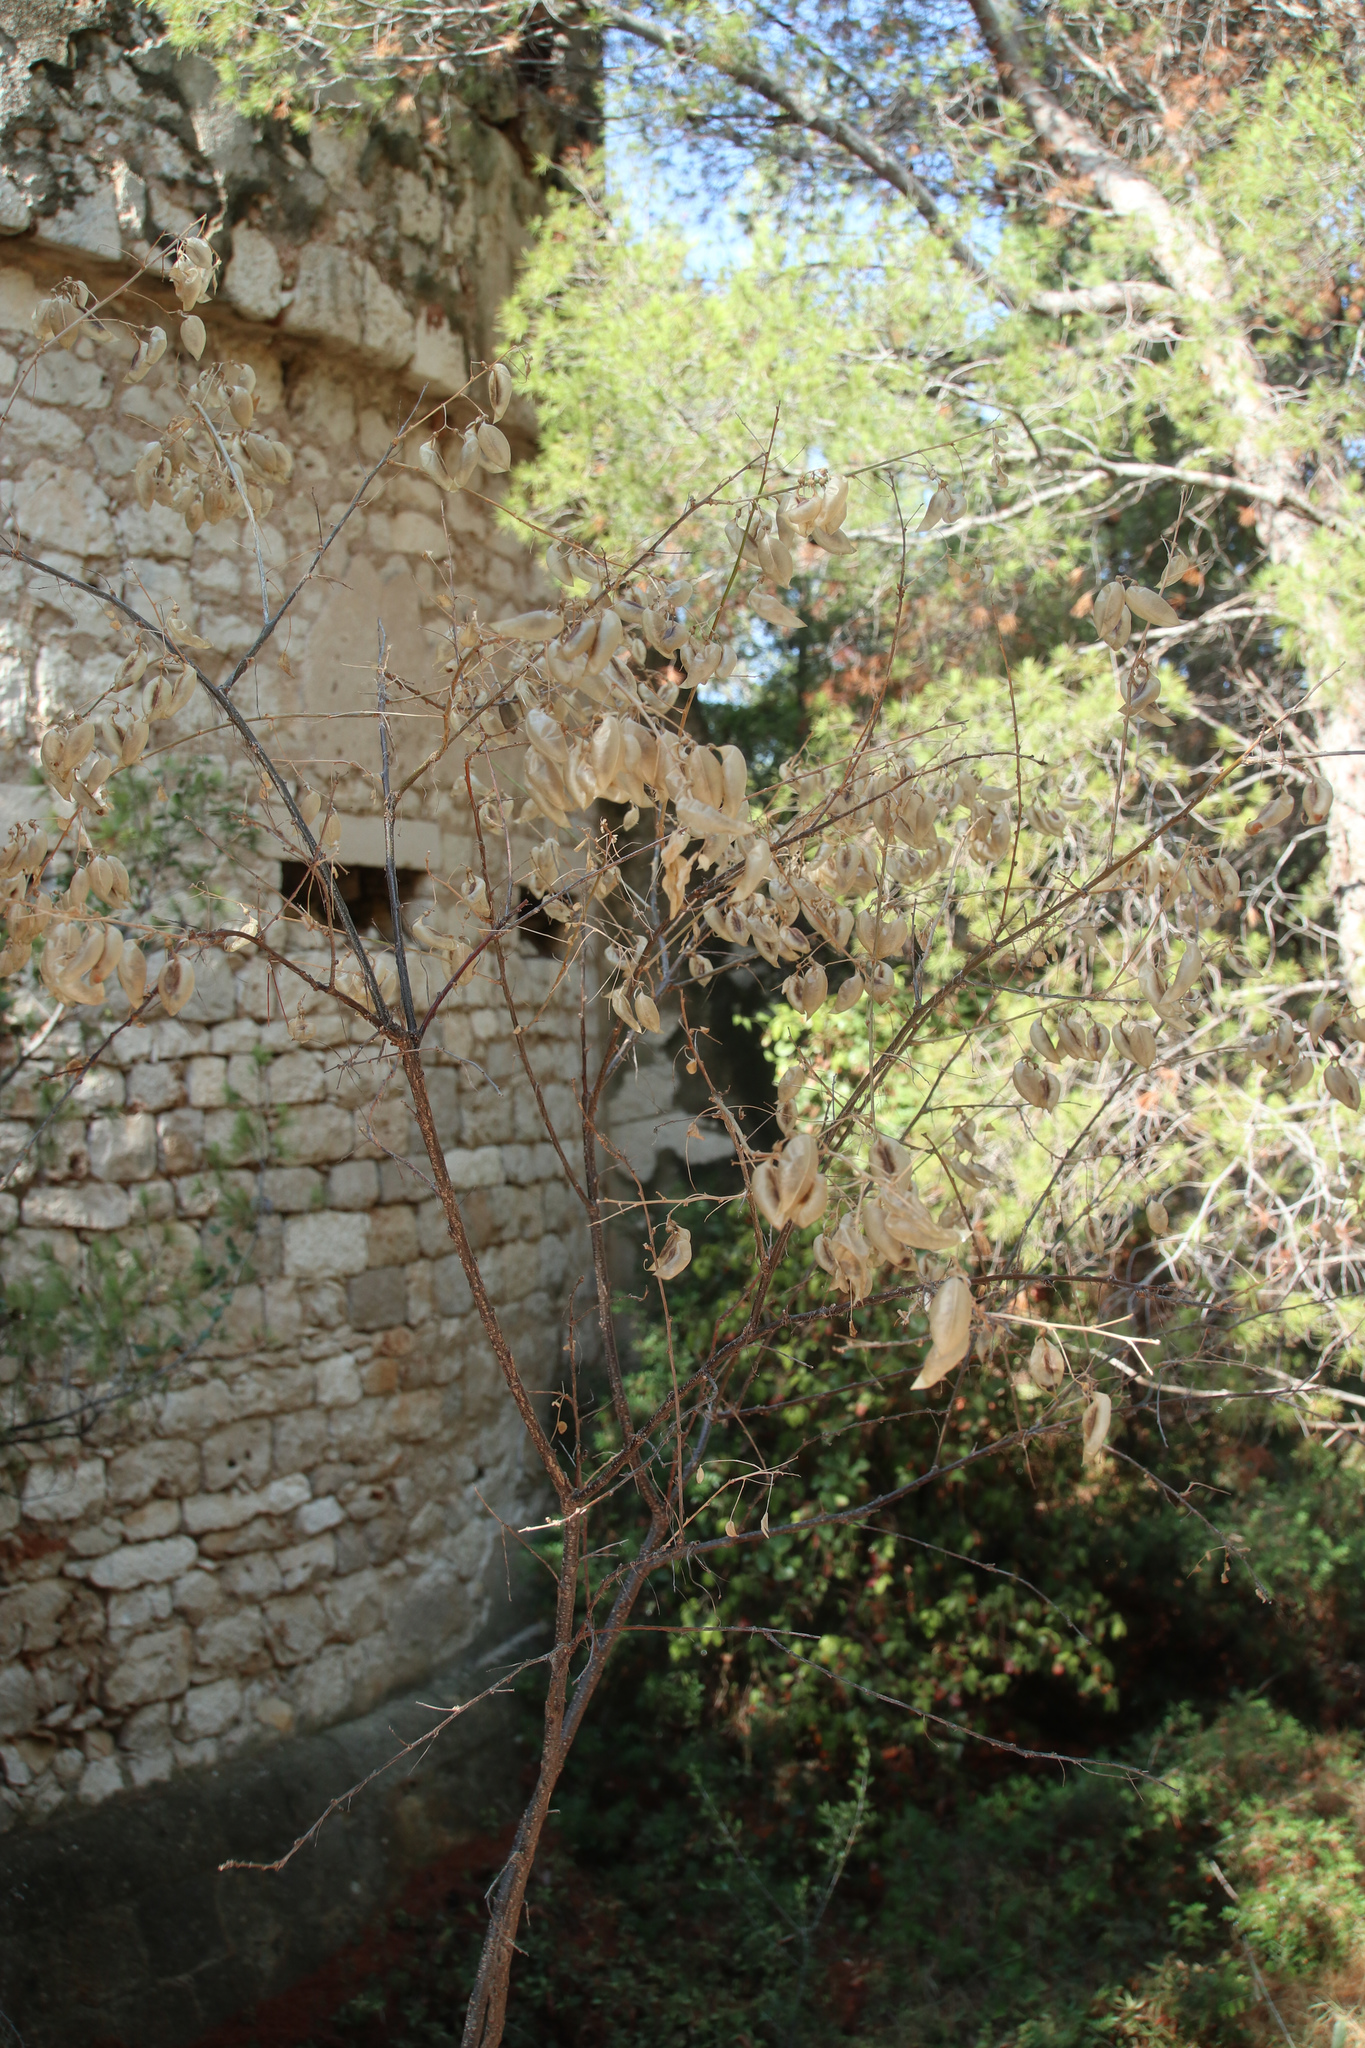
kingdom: Plantae
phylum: Tracheophyta
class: Magnoliopsida
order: Fabales
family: Fabaceae
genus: Colutea
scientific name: Colutea arborescens
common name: Bladder-senna
